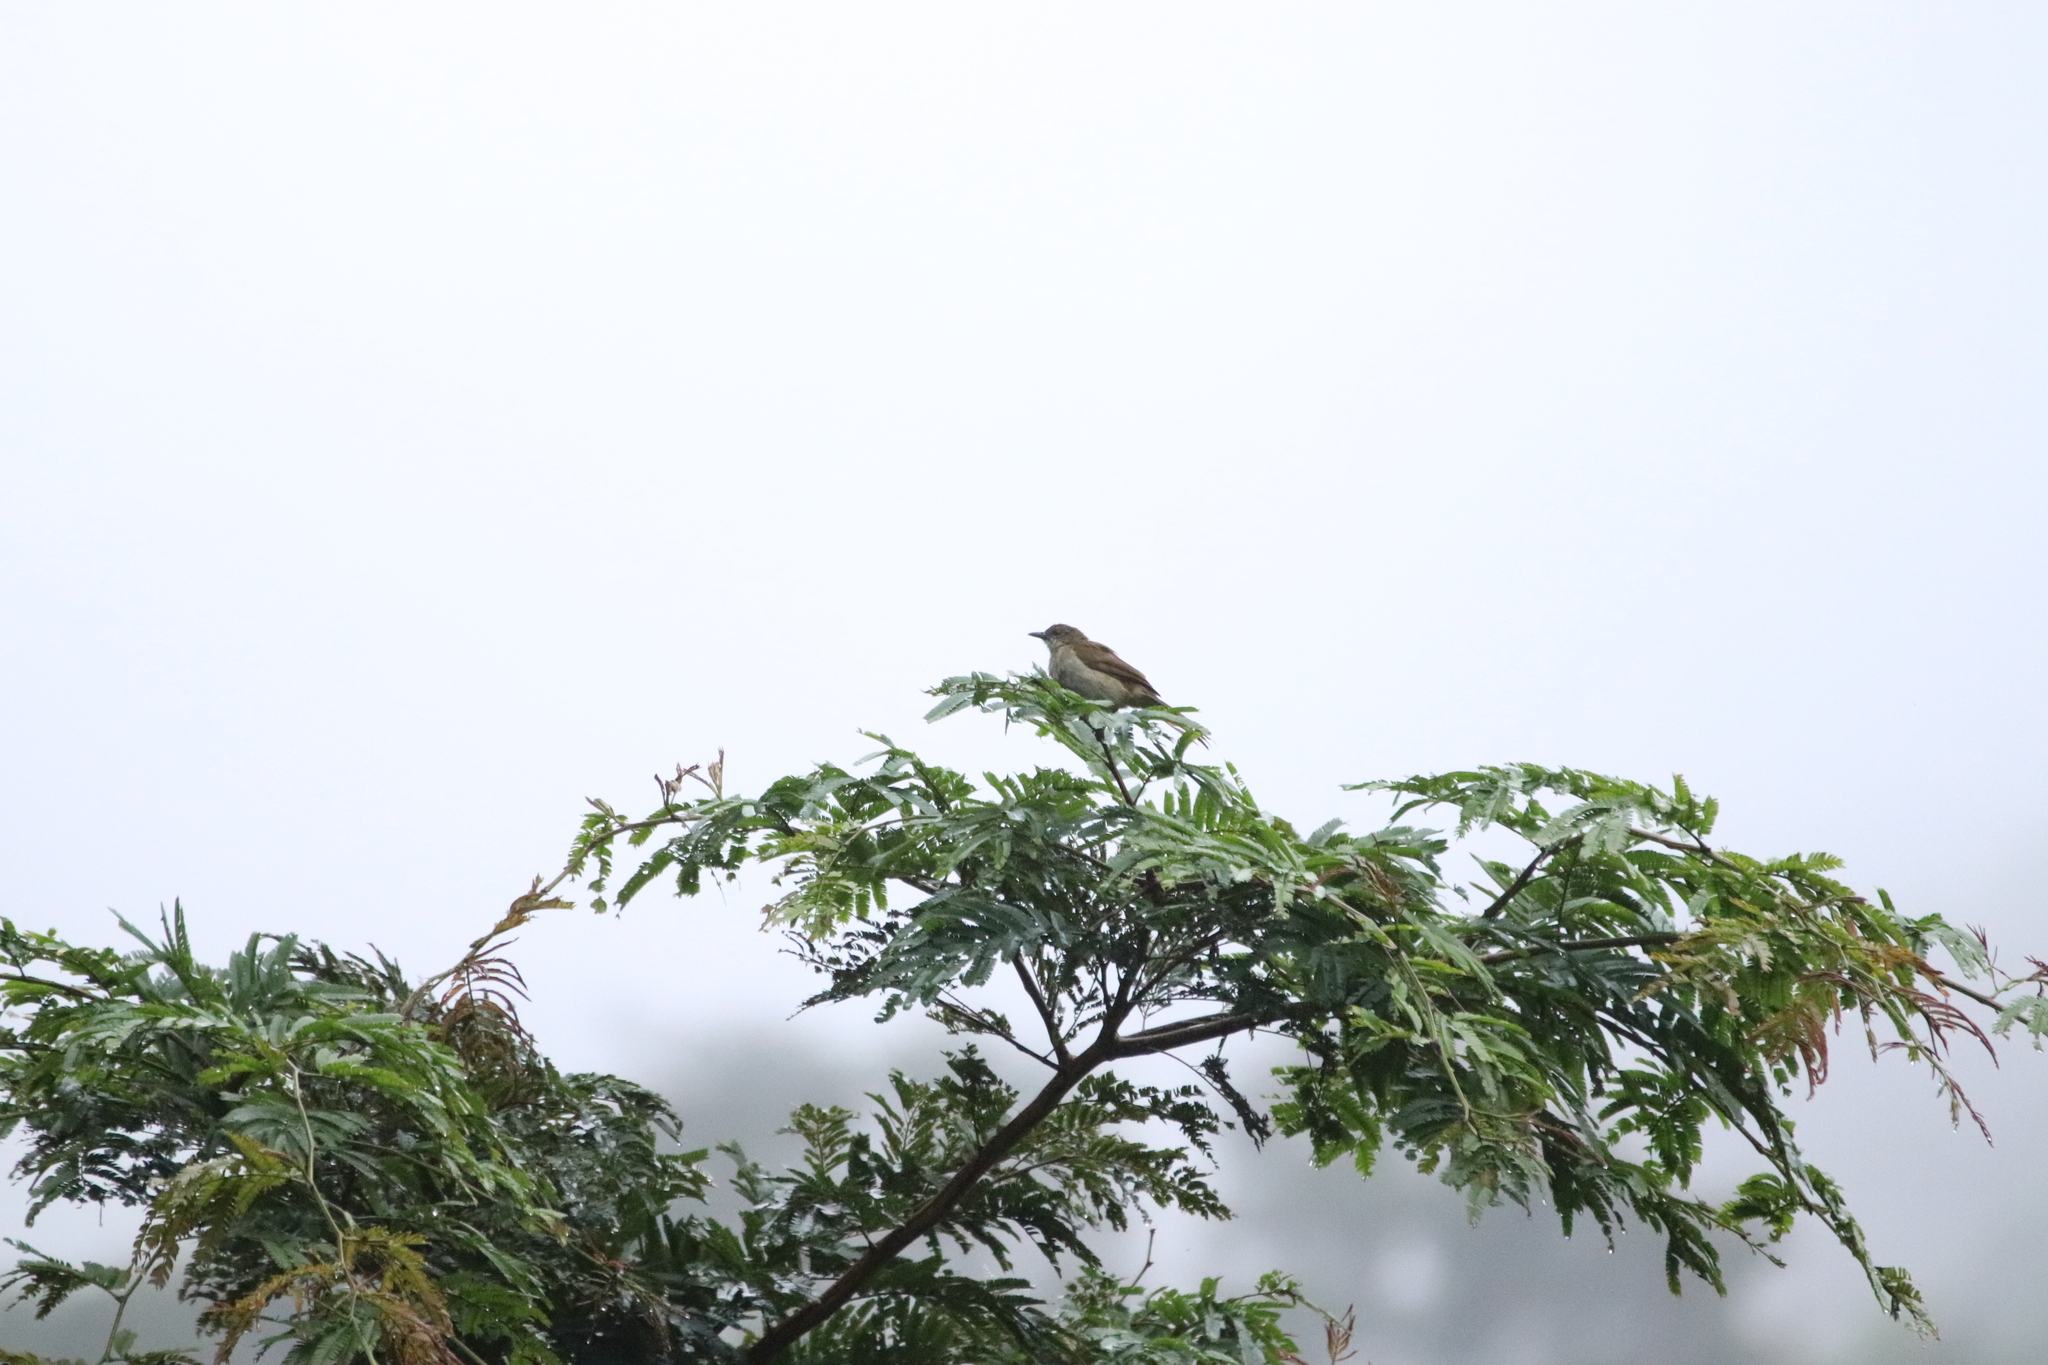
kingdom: Animalia
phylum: Chordata
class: Aves
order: Passeriformes
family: Pycnonotidae
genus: Stelgidillas
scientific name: Stelgidillas gracilirostris
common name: Slender-billed greenbul
